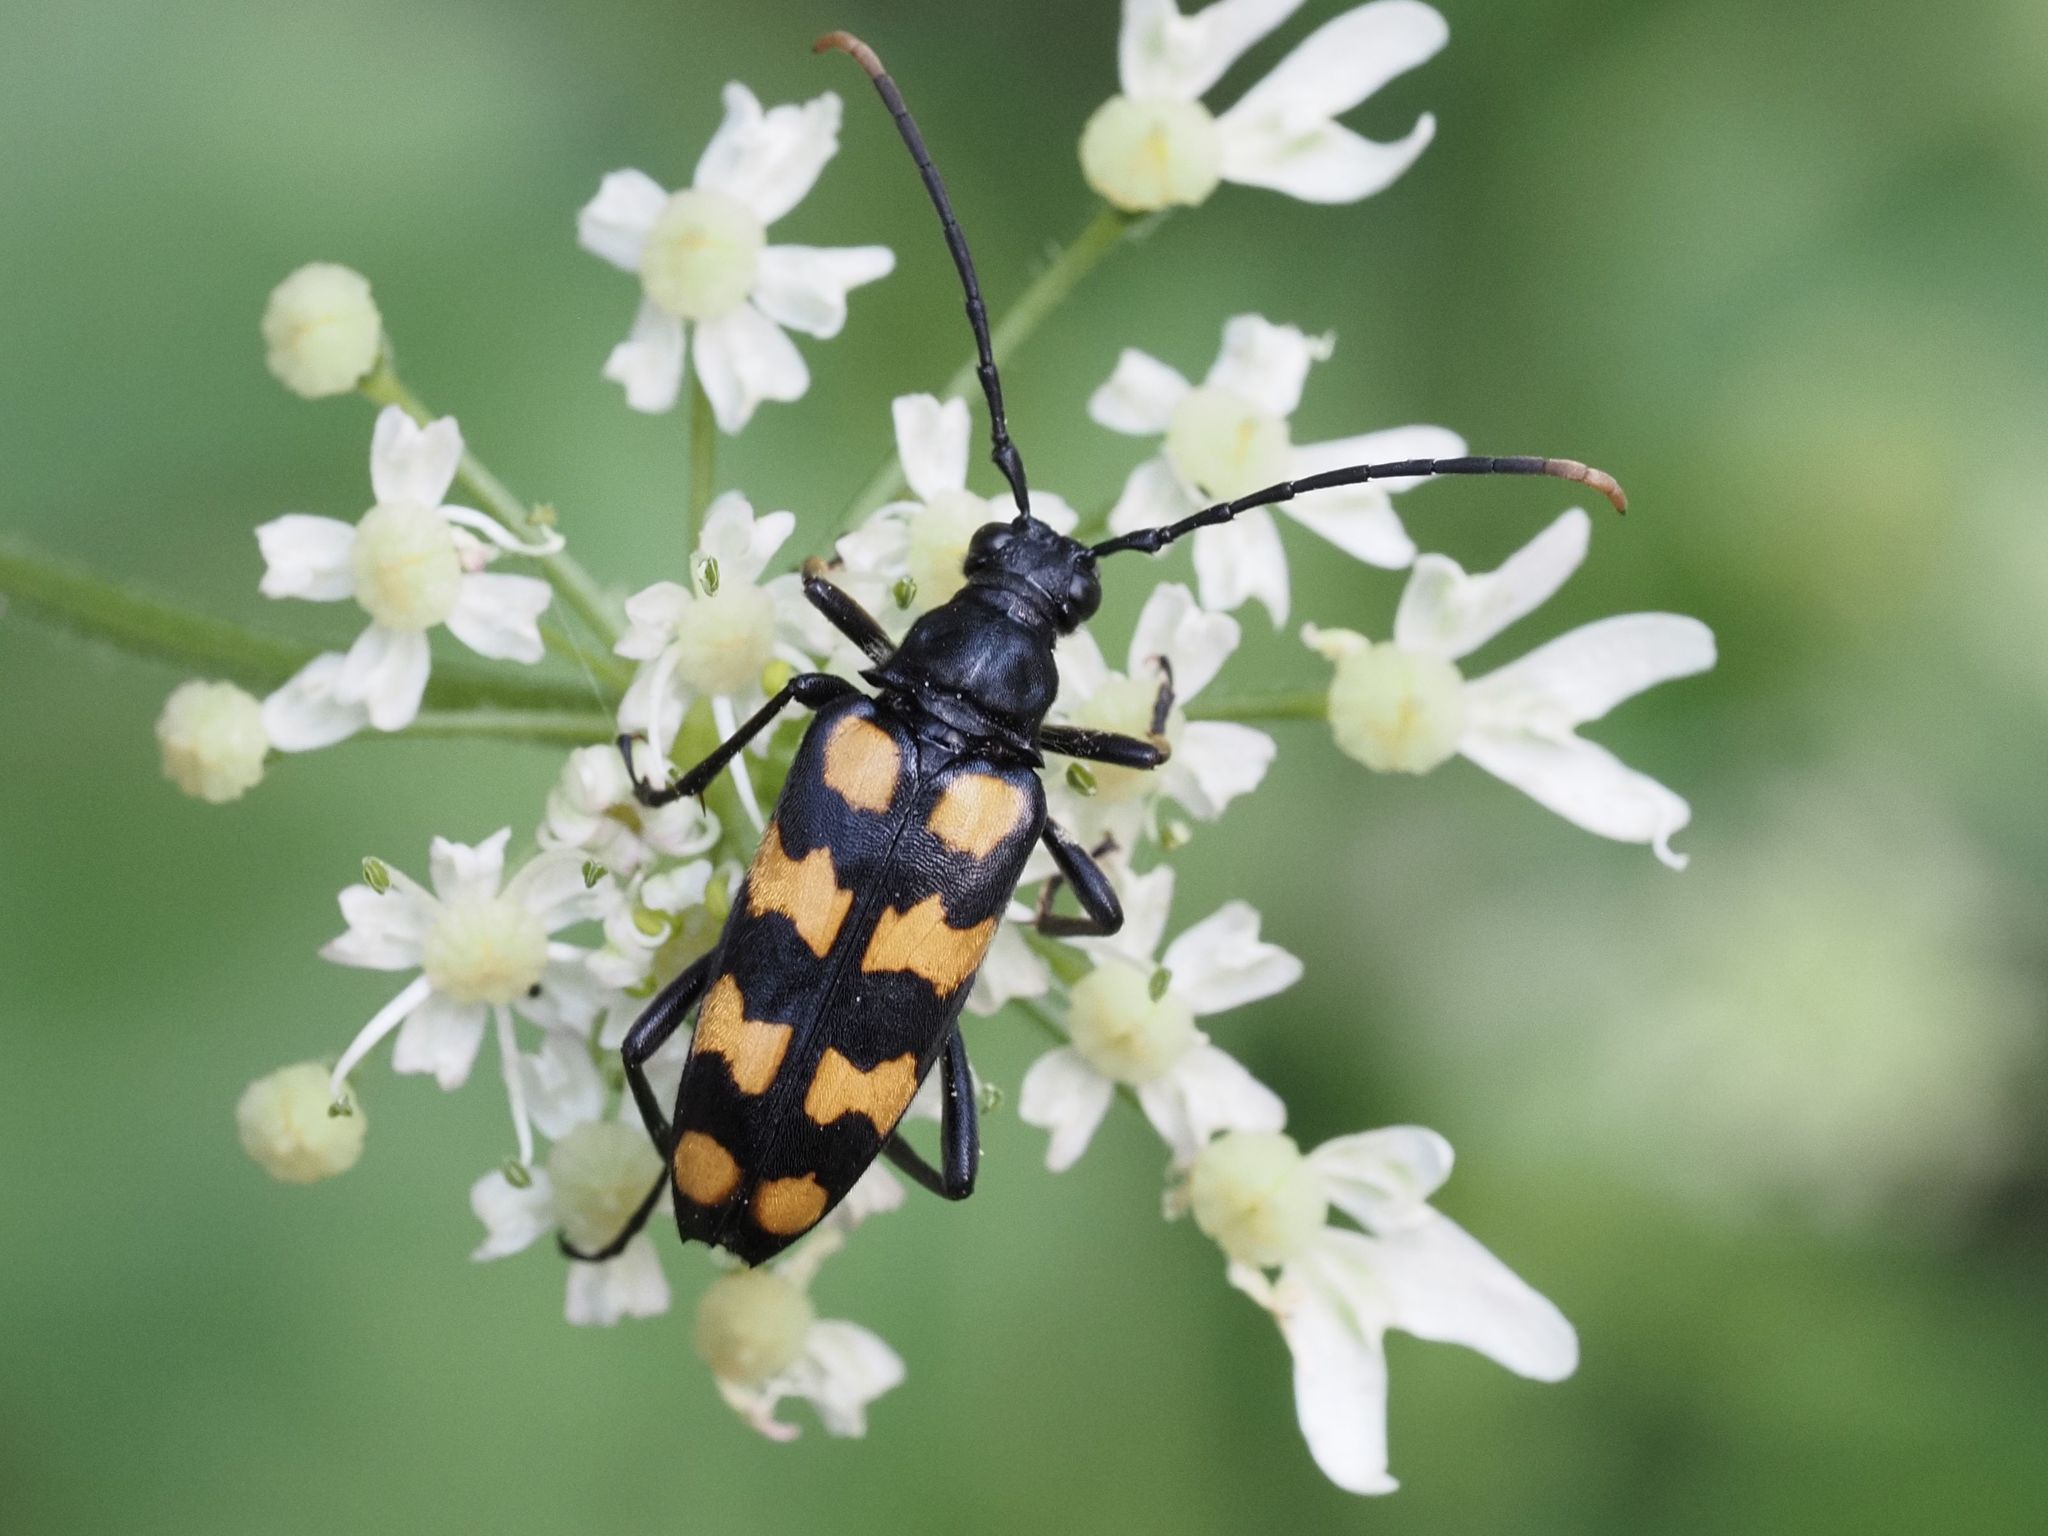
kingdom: Animalia
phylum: Arthropoda
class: Insecta
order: Coleoptera
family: Cerambycidae
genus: Leptura
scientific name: Leptura quadrifasciata
